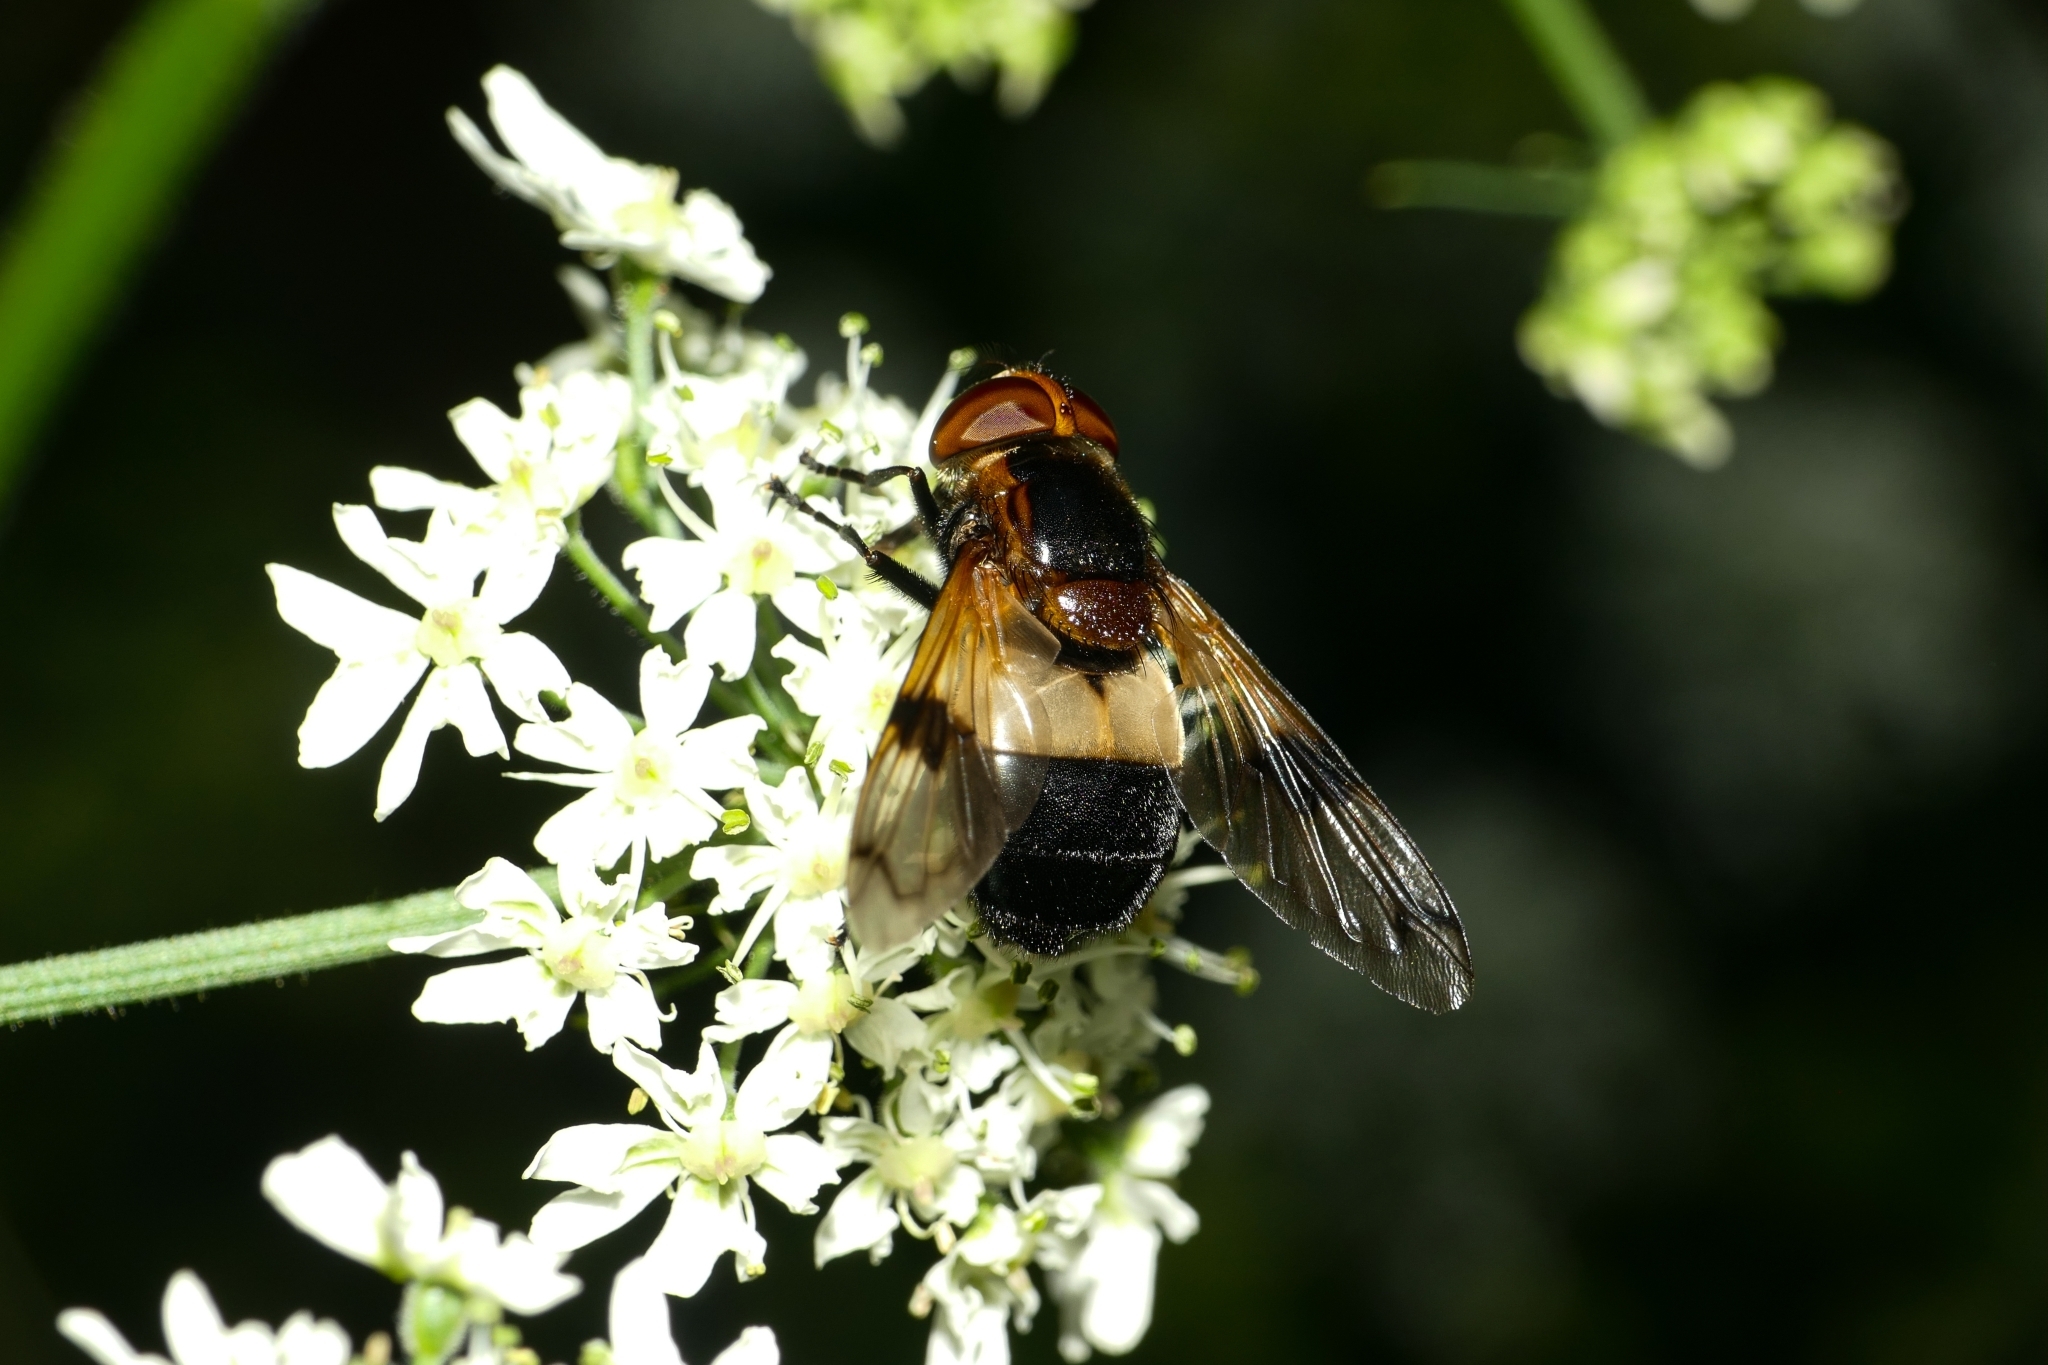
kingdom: Animalia
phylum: Arthropoda
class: Insecta
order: Diptera
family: Syrphidae
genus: Volucella
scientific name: Volucella pellucens
